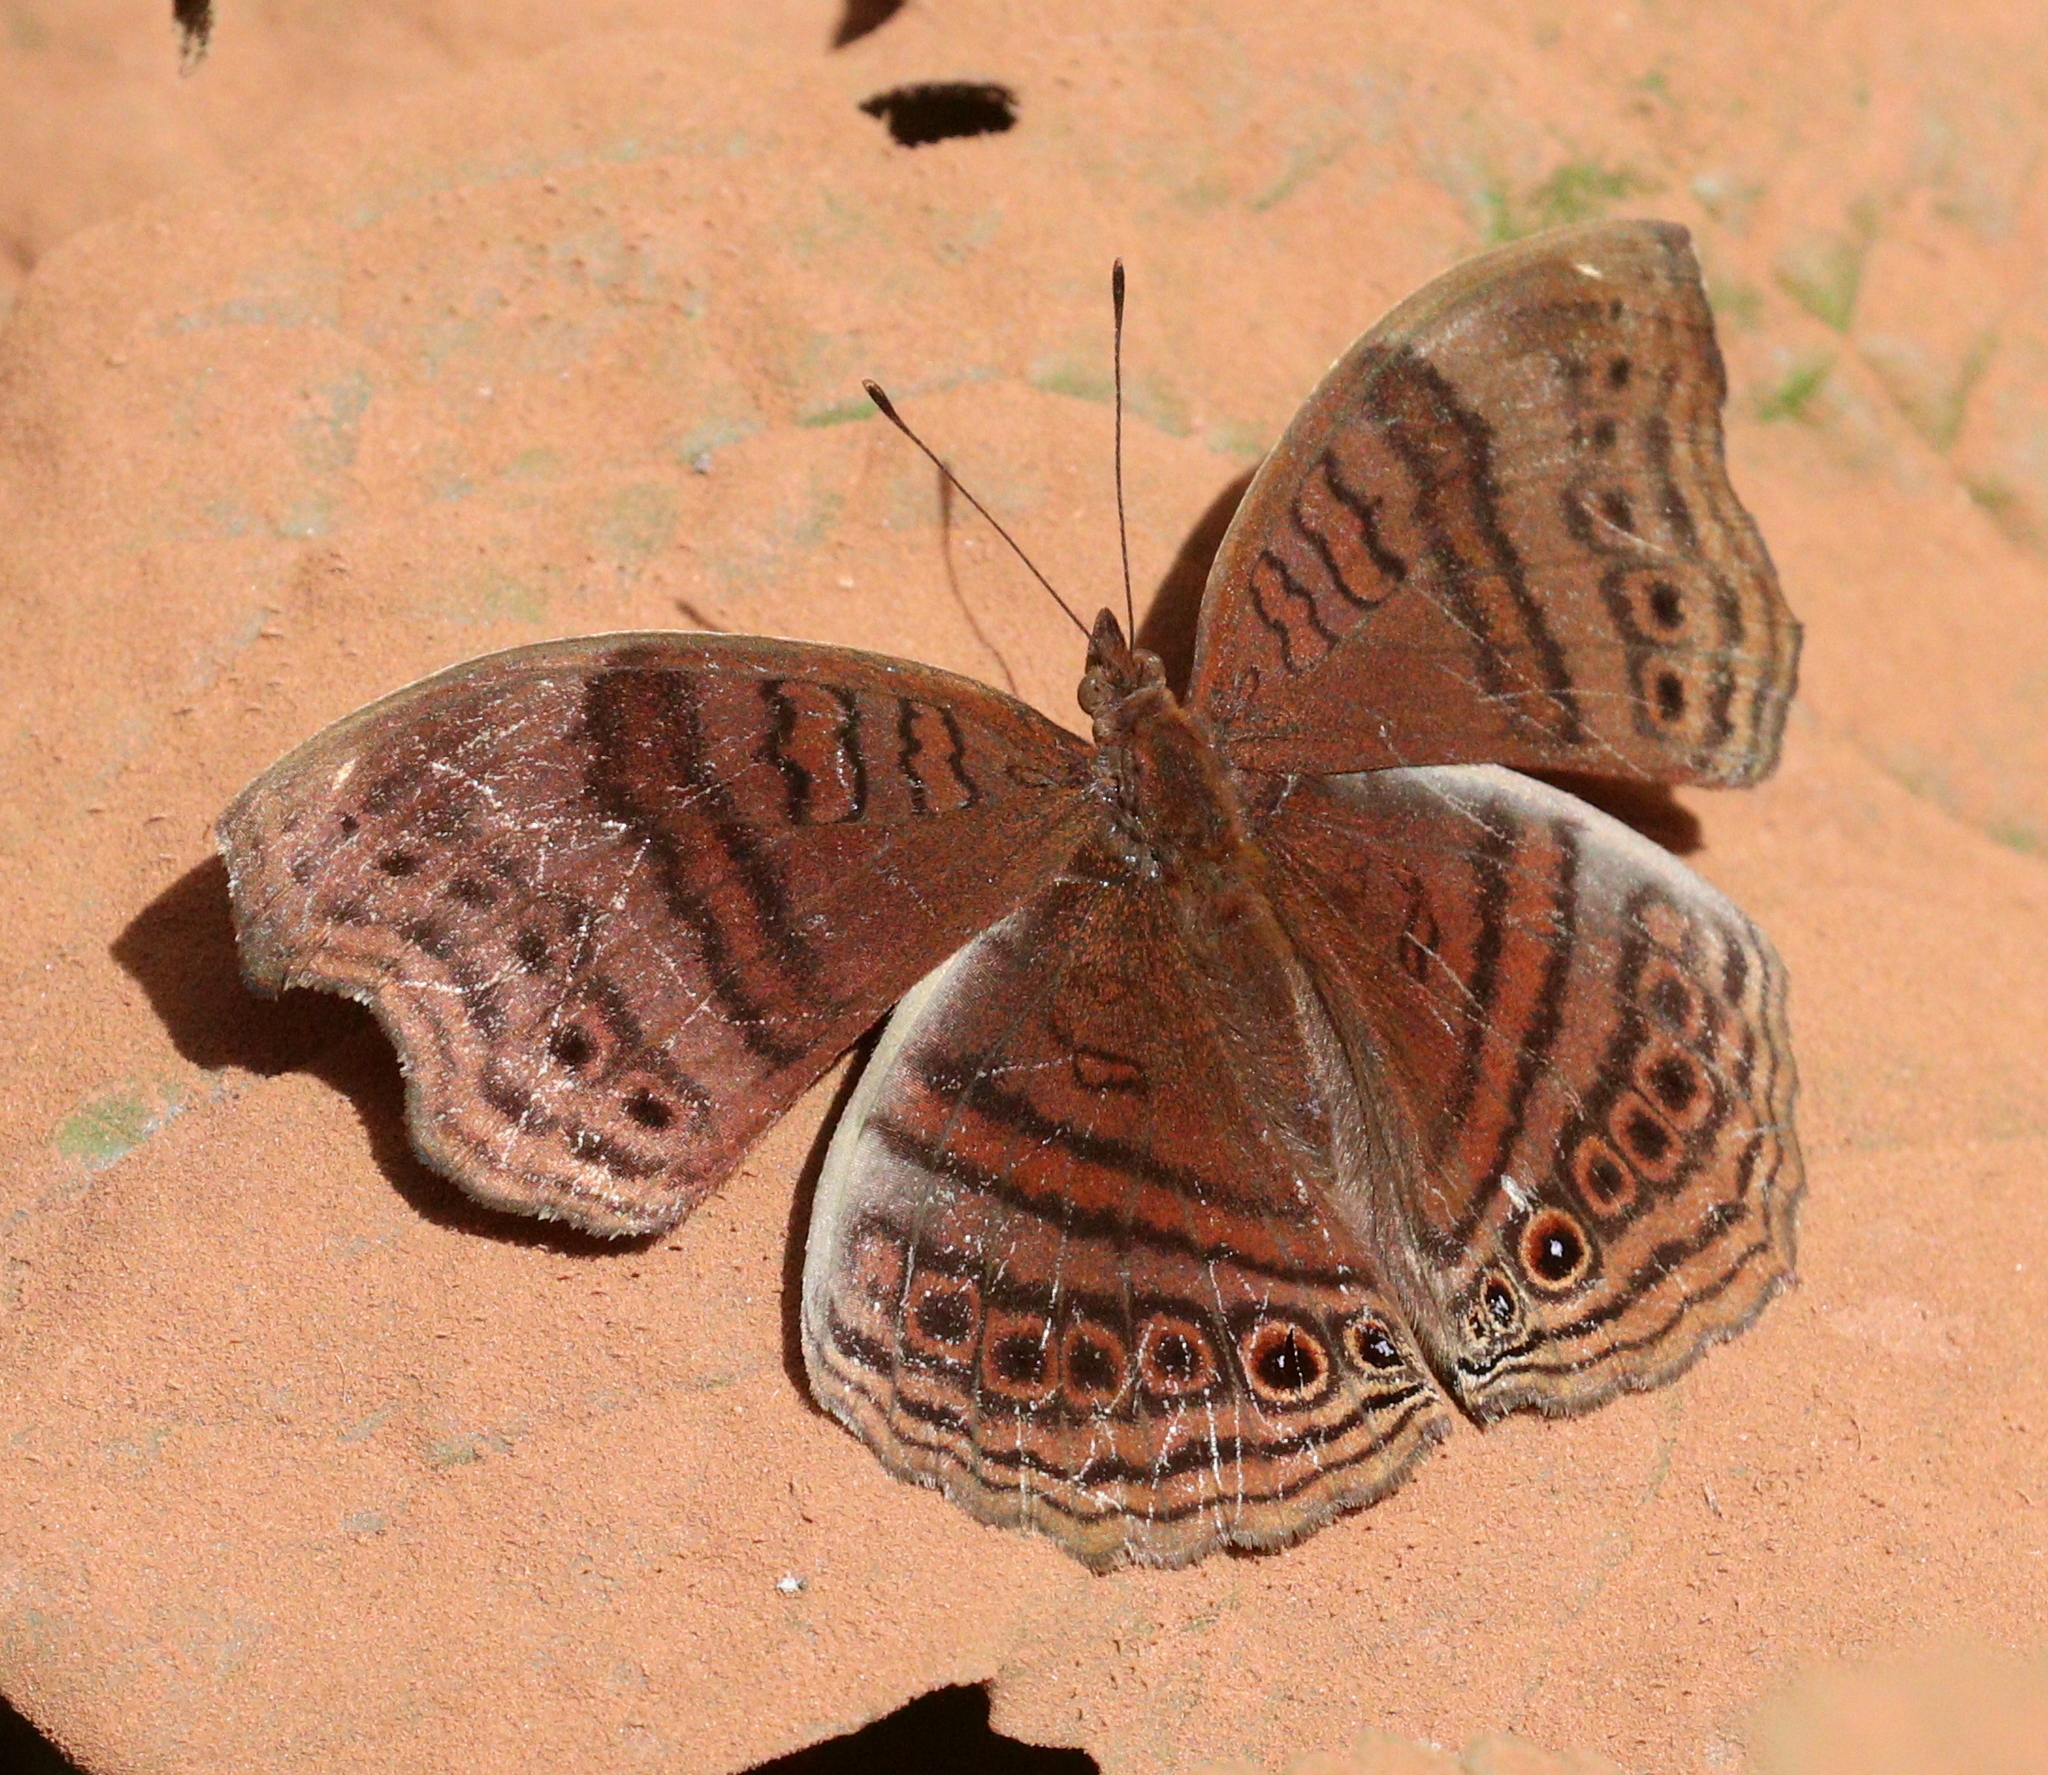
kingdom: Animalia
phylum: Arthropoda
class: Insecta
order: Lepidoptera
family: Nymphalidae
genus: Junonia
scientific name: Junonia stygia
